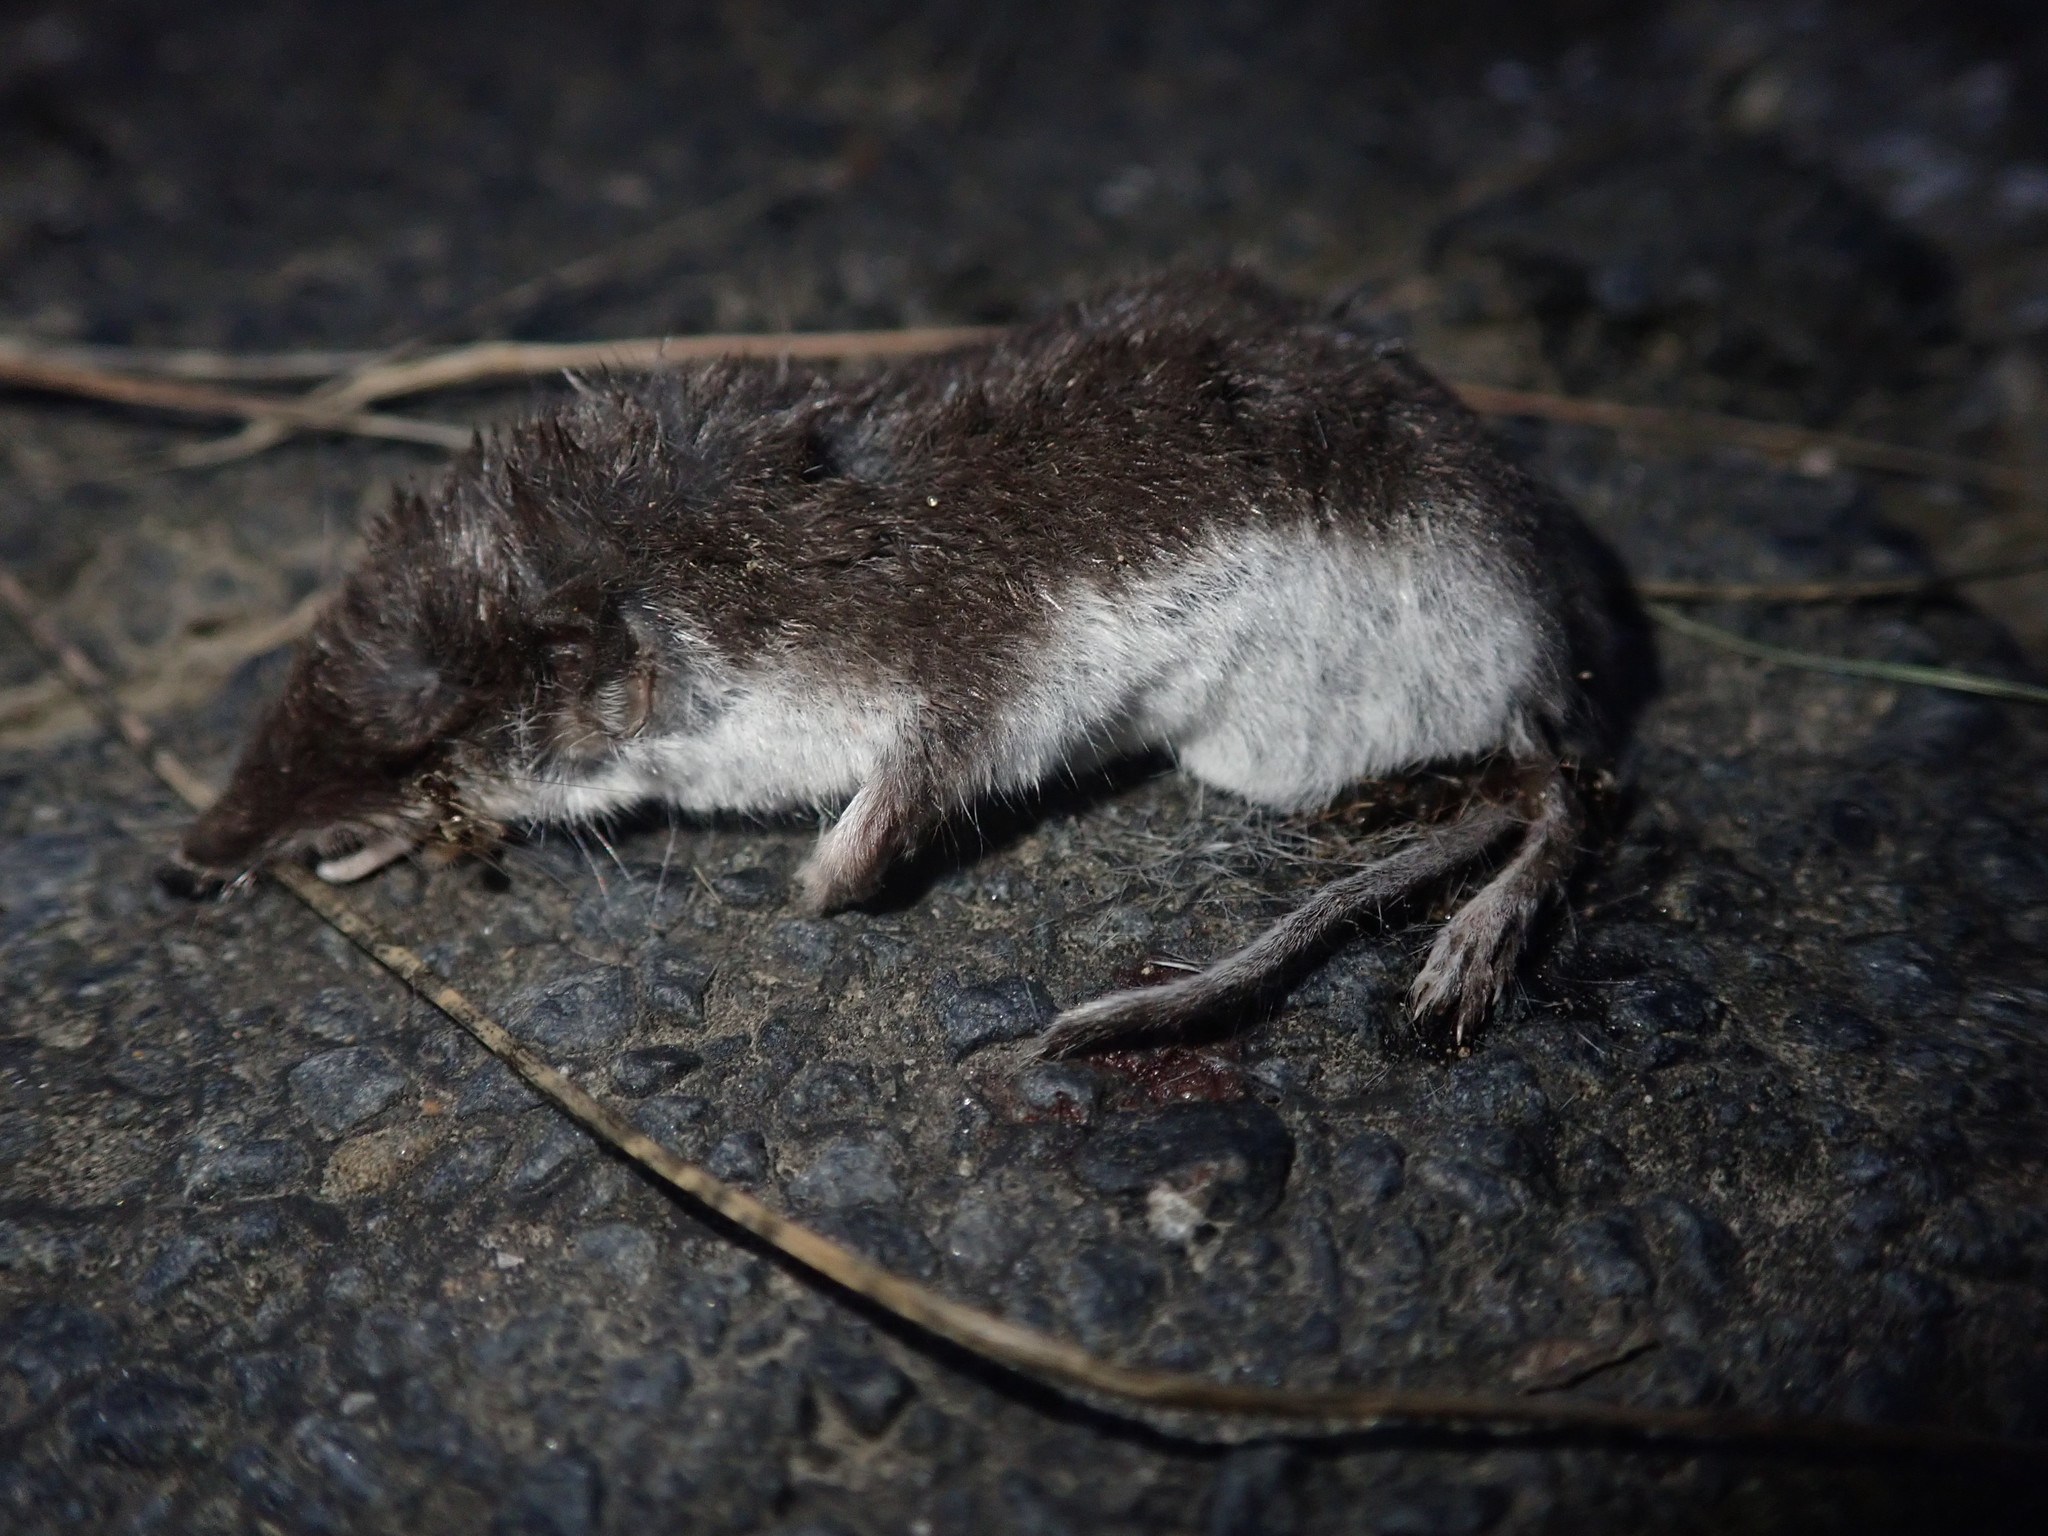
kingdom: Animalia
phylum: Chordata
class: Mammalia
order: Soricomorpha
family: Soricidae
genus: Crocidura
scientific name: Crocidura leucodon
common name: Bicolored shrew
